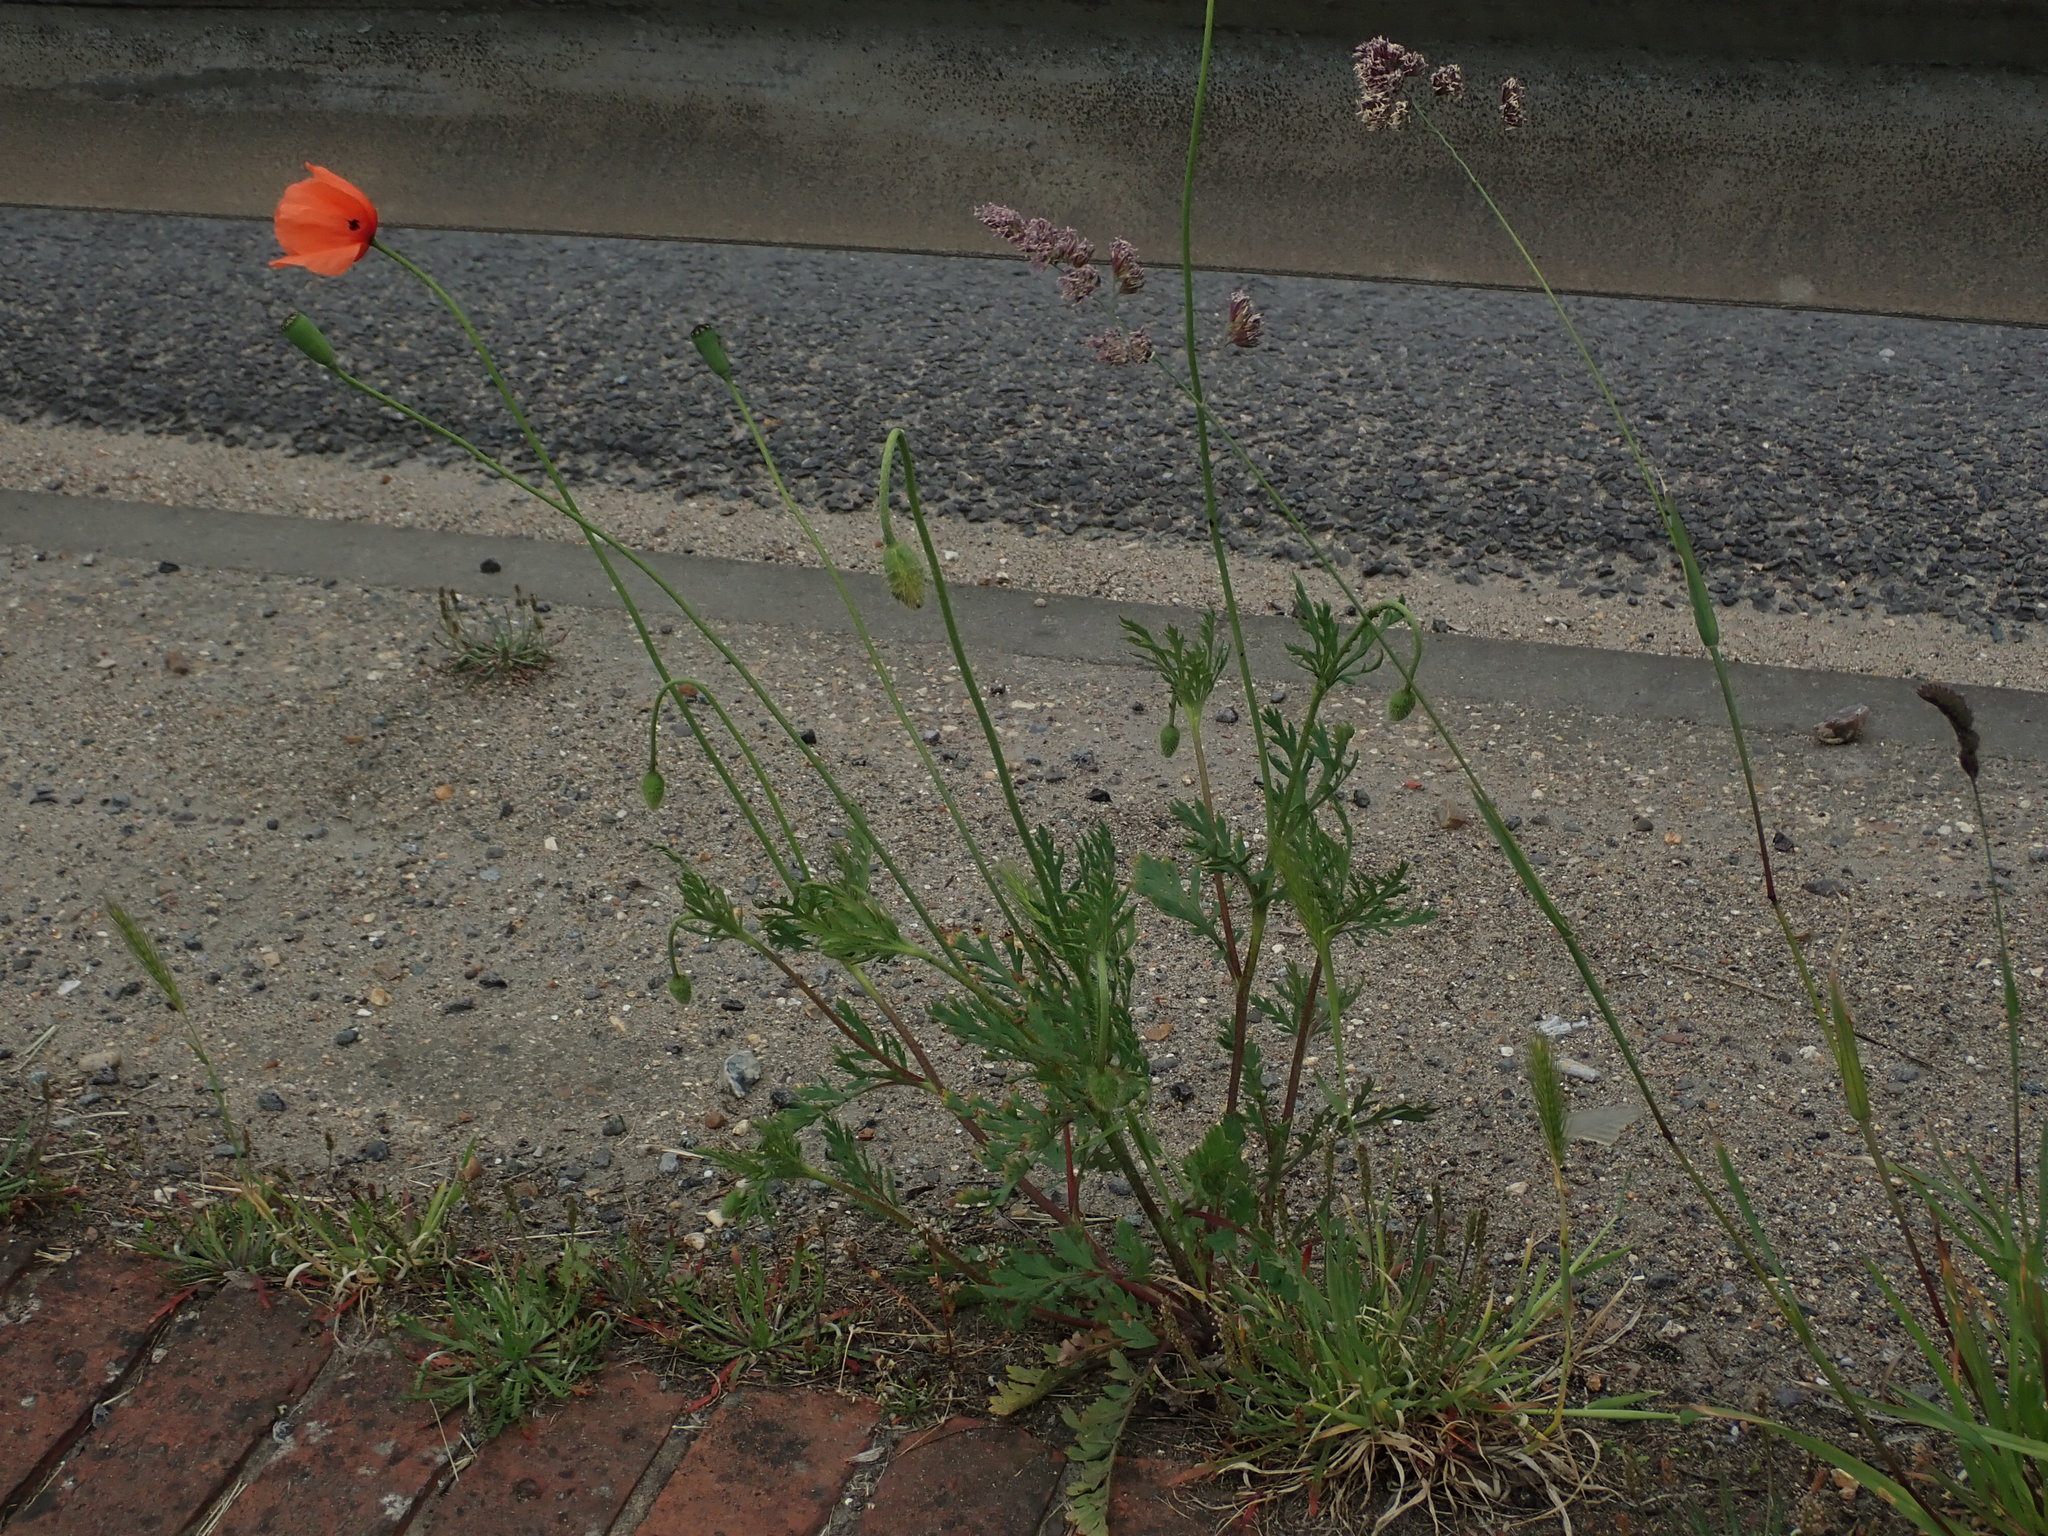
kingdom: Plantae
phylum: Tracheophyta
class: Magnoliopsida
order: Ranunculales
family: Papaveraceae
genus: Papaver
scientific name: Papaver rhoeas
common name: Corn poppy
